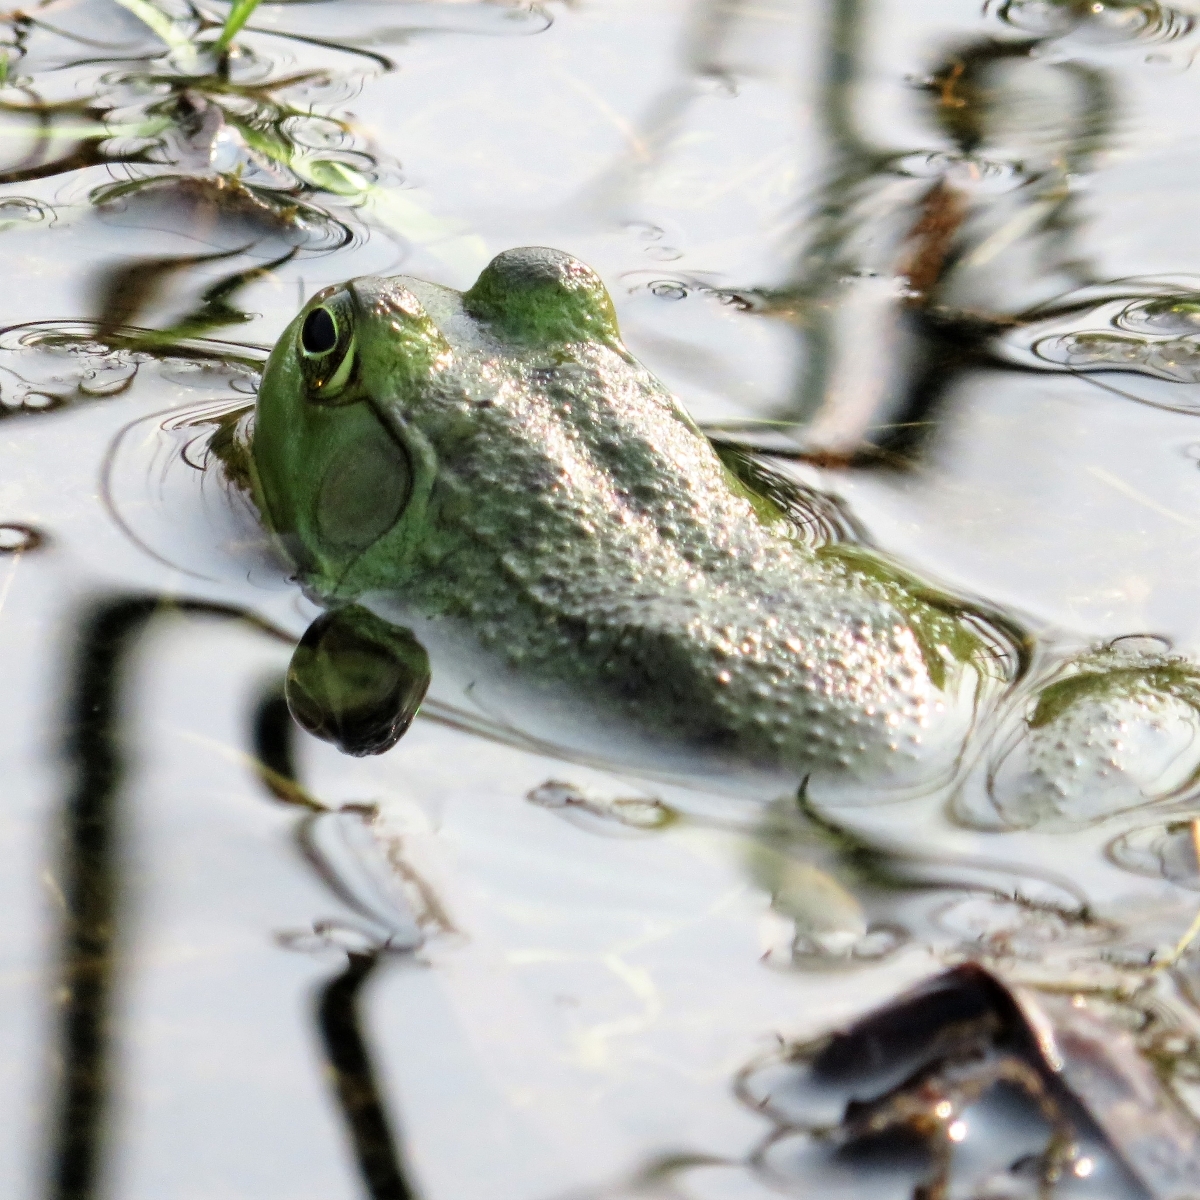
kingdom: Animalia
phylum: Chordata
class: Amphibia
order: Anura
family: Ranidae
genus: Lithobates
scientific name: Lithobates catesbeianus
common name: American bullfrog
